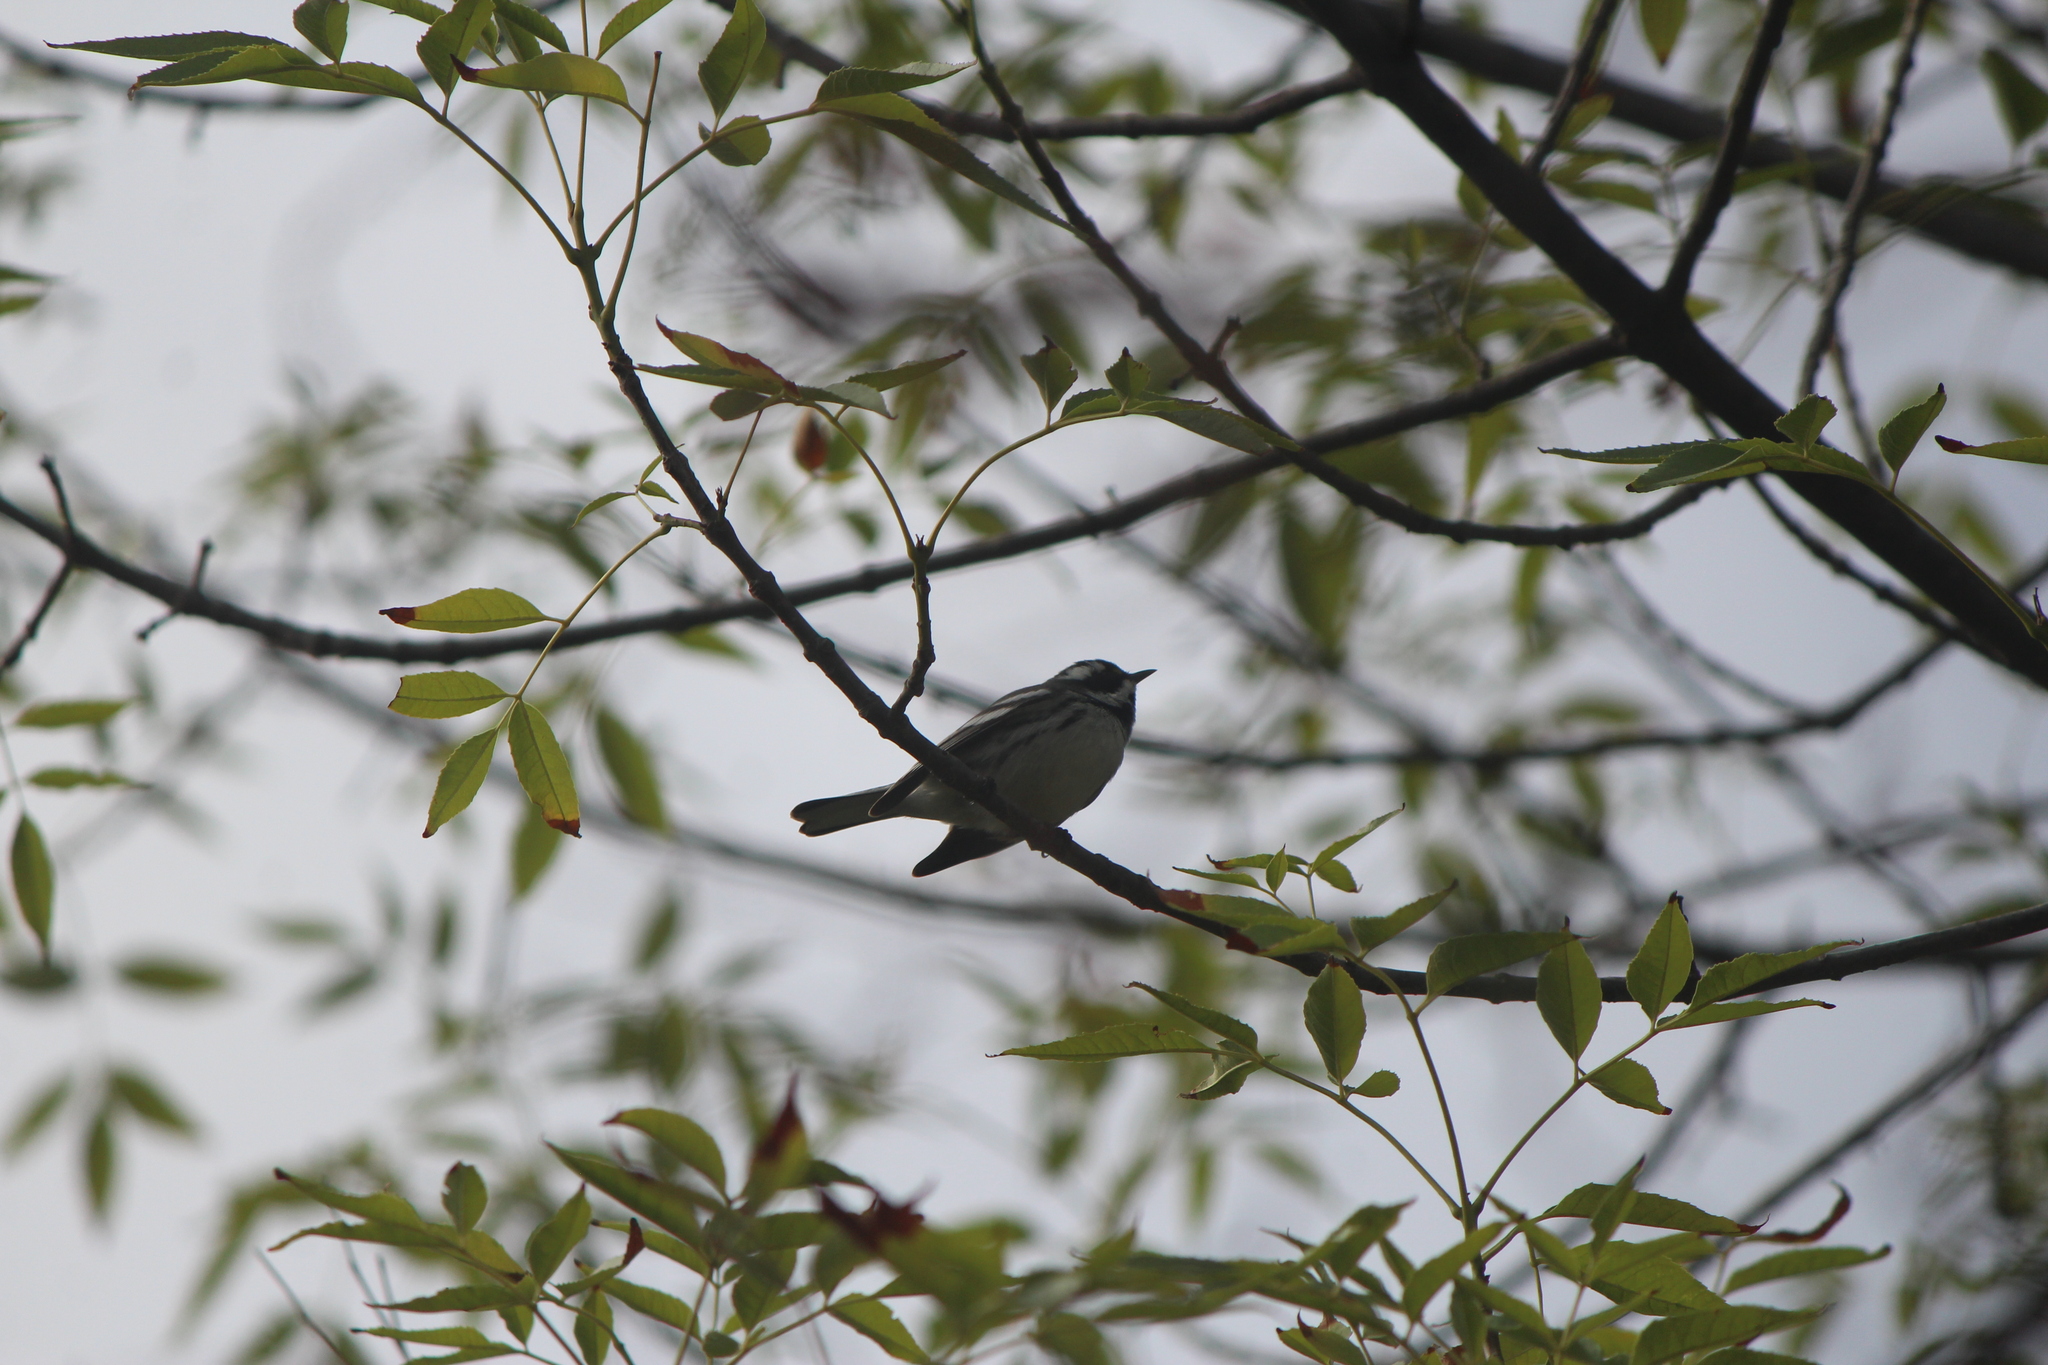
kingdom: Animalia
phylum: Chordata
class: Aves
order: Passeriformes
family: Parulidae
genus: Setophaga
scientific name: Setophaga nigrescens
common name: Black-throated gray warbler
